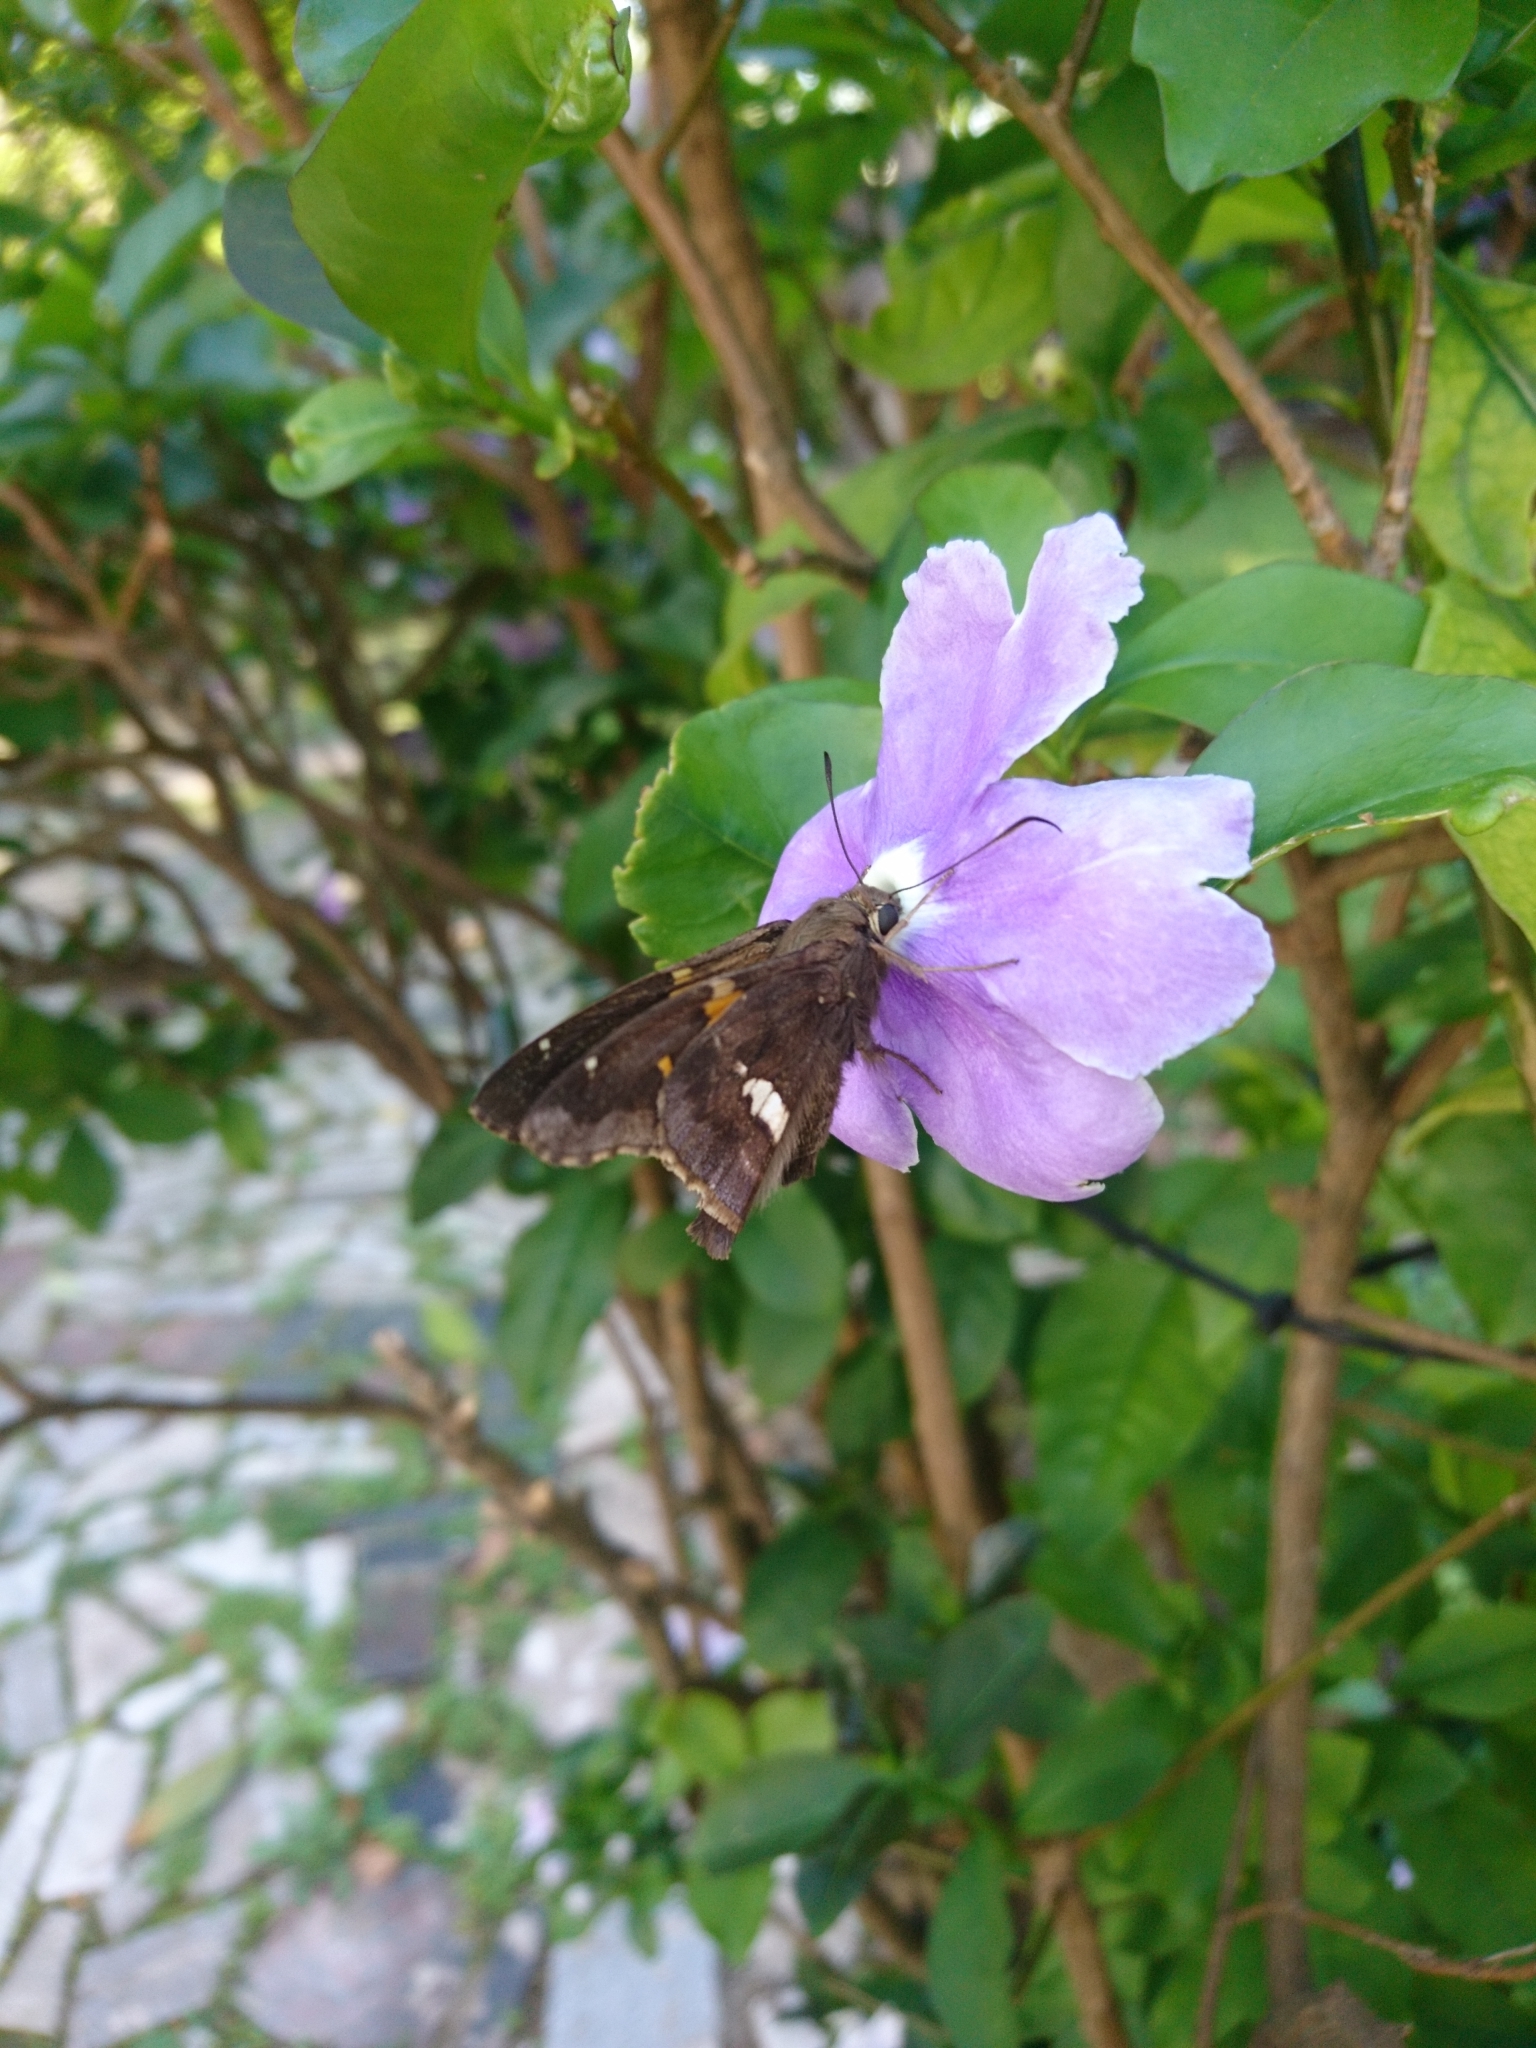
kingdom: Animalia
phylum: Arthropoda
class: Insecta
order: Lepidoptera
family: Hesperiidae
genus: Epargyreus
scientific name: Epargyreus tmolis
